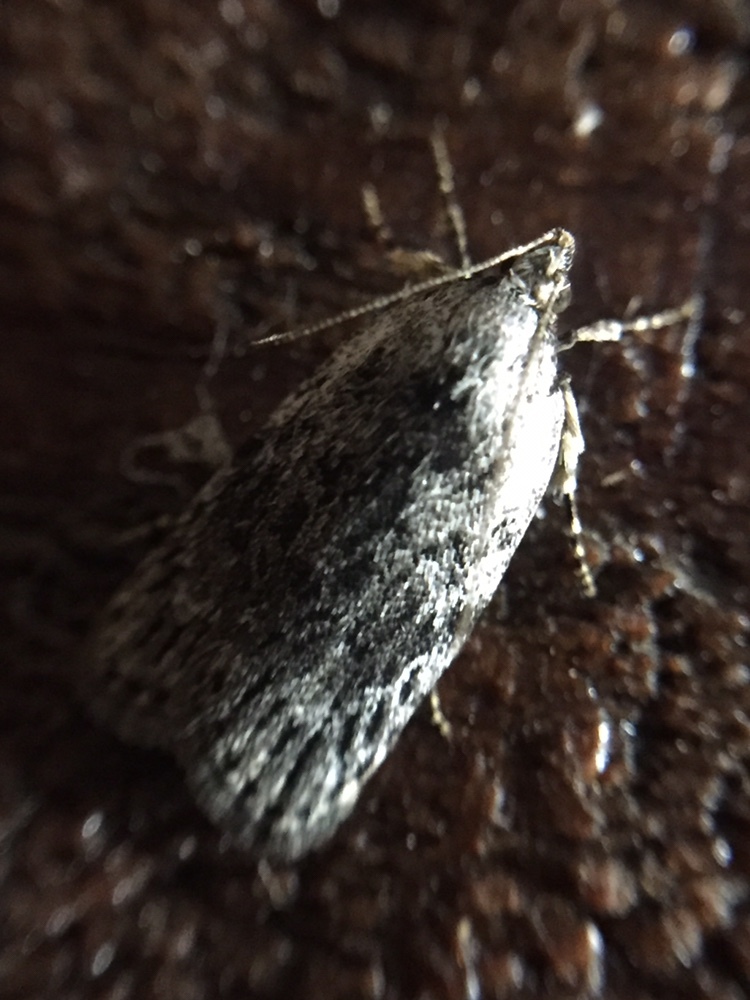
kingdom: Animalia
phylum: Arthropoda
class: Insecta
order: Lepidoptera
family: Depressariidae
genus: Phaeosaces
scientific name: Phaeosaces compsotypa
